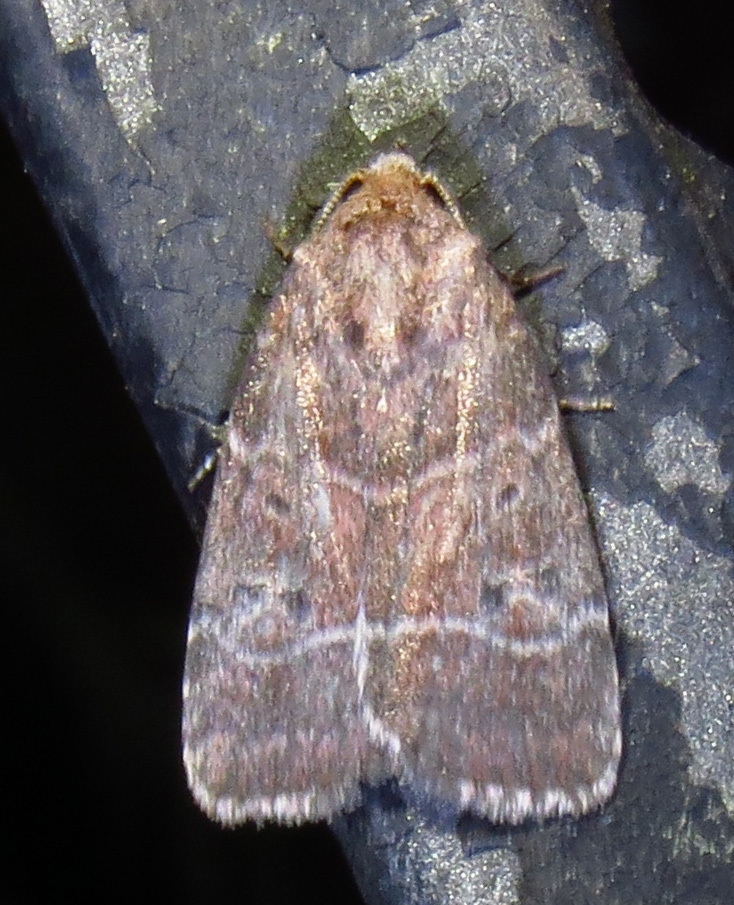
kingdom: Animalia
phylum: Arthropoda
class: Insecta
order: Lepidoptera
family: Noctuidae
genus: Elaphria
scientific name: Elaphria grata
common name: Grateful midget moth
